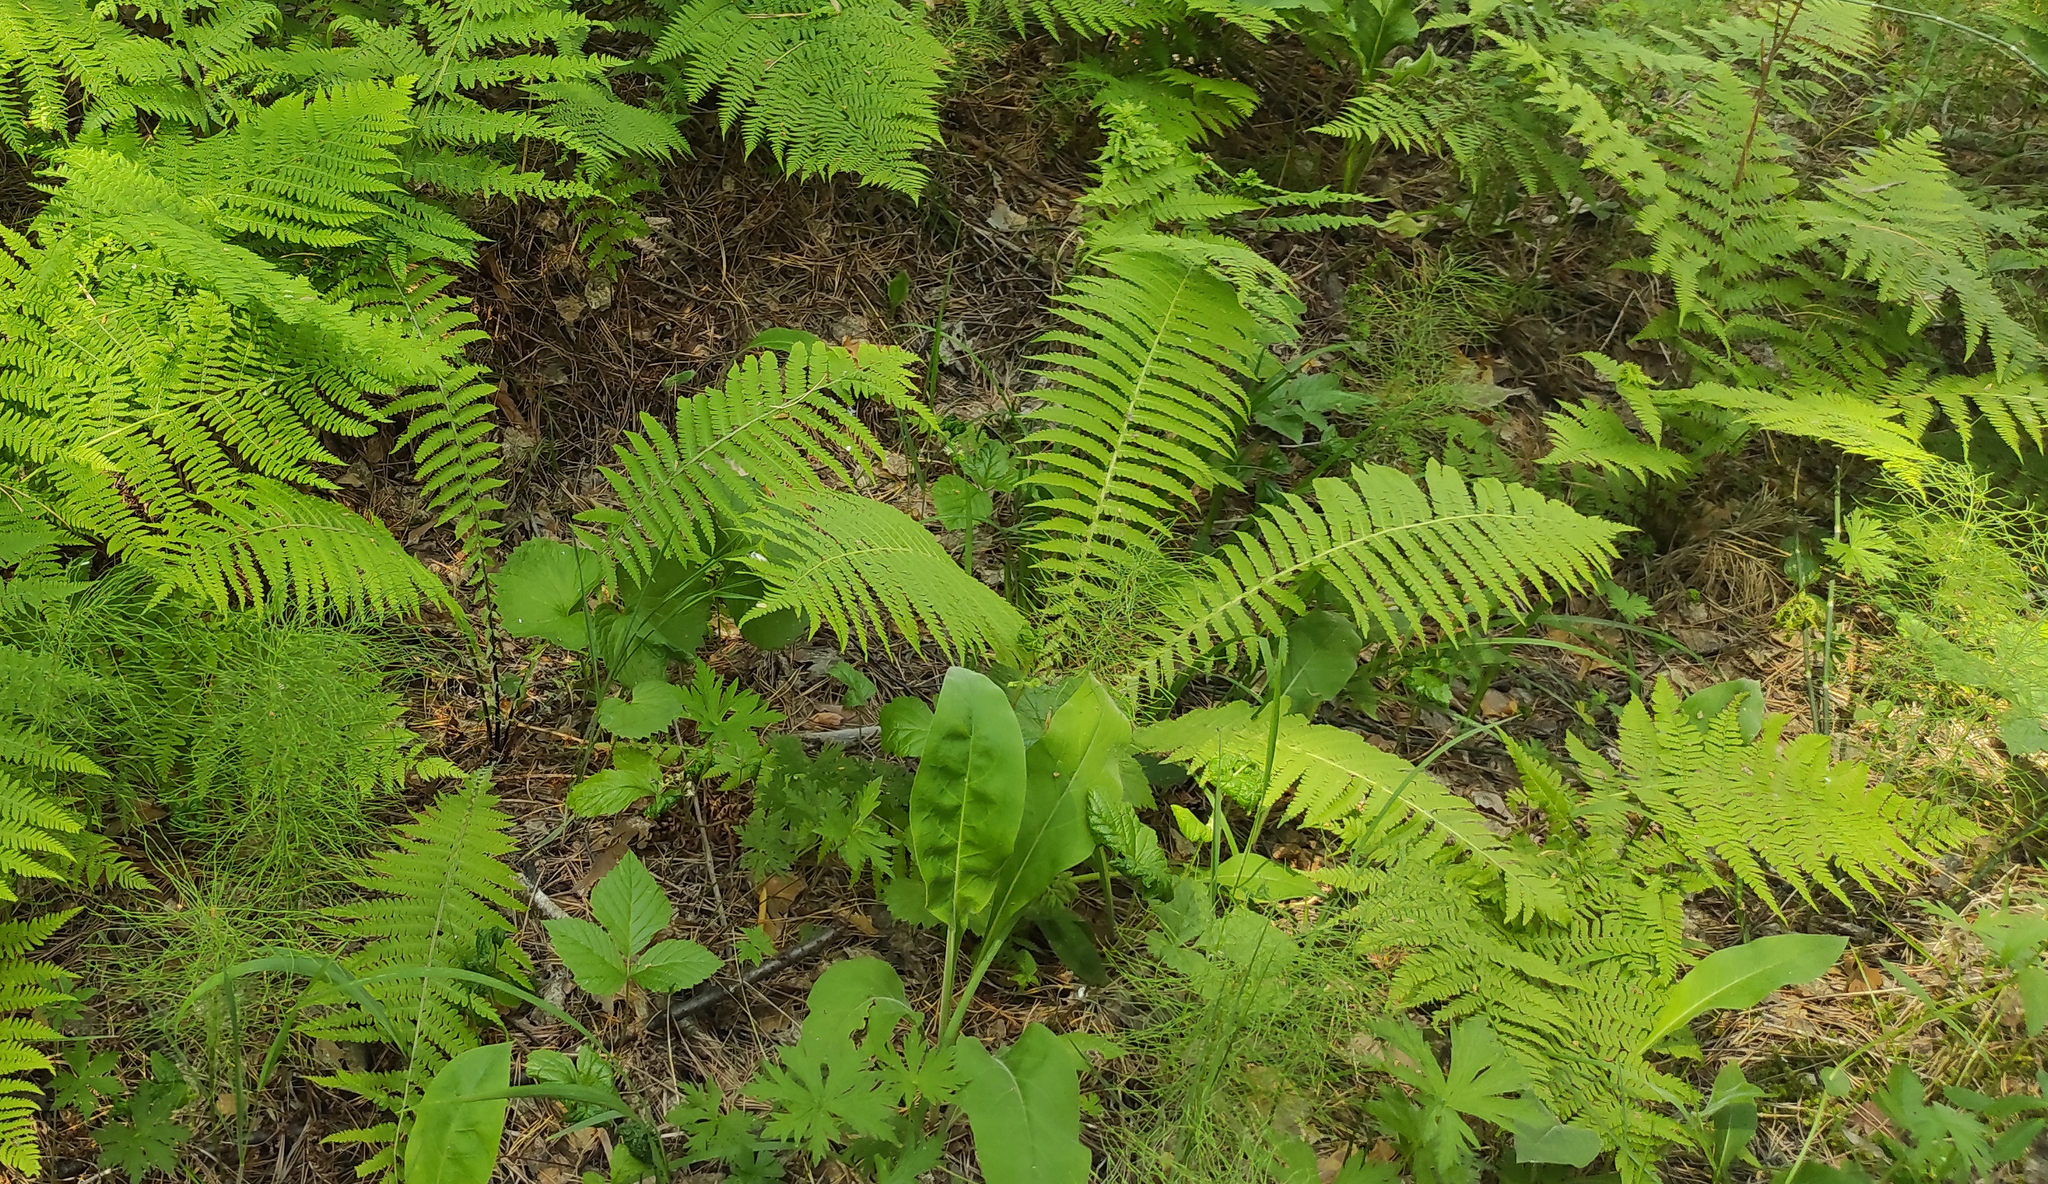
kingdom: Plantae
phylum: Tracheophyta
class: Polypodiopsida
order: Polypodiales
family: Onocleaceae
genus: Matteuccia
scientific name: Matteuccia struthiopteris
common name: Ostrich fern
